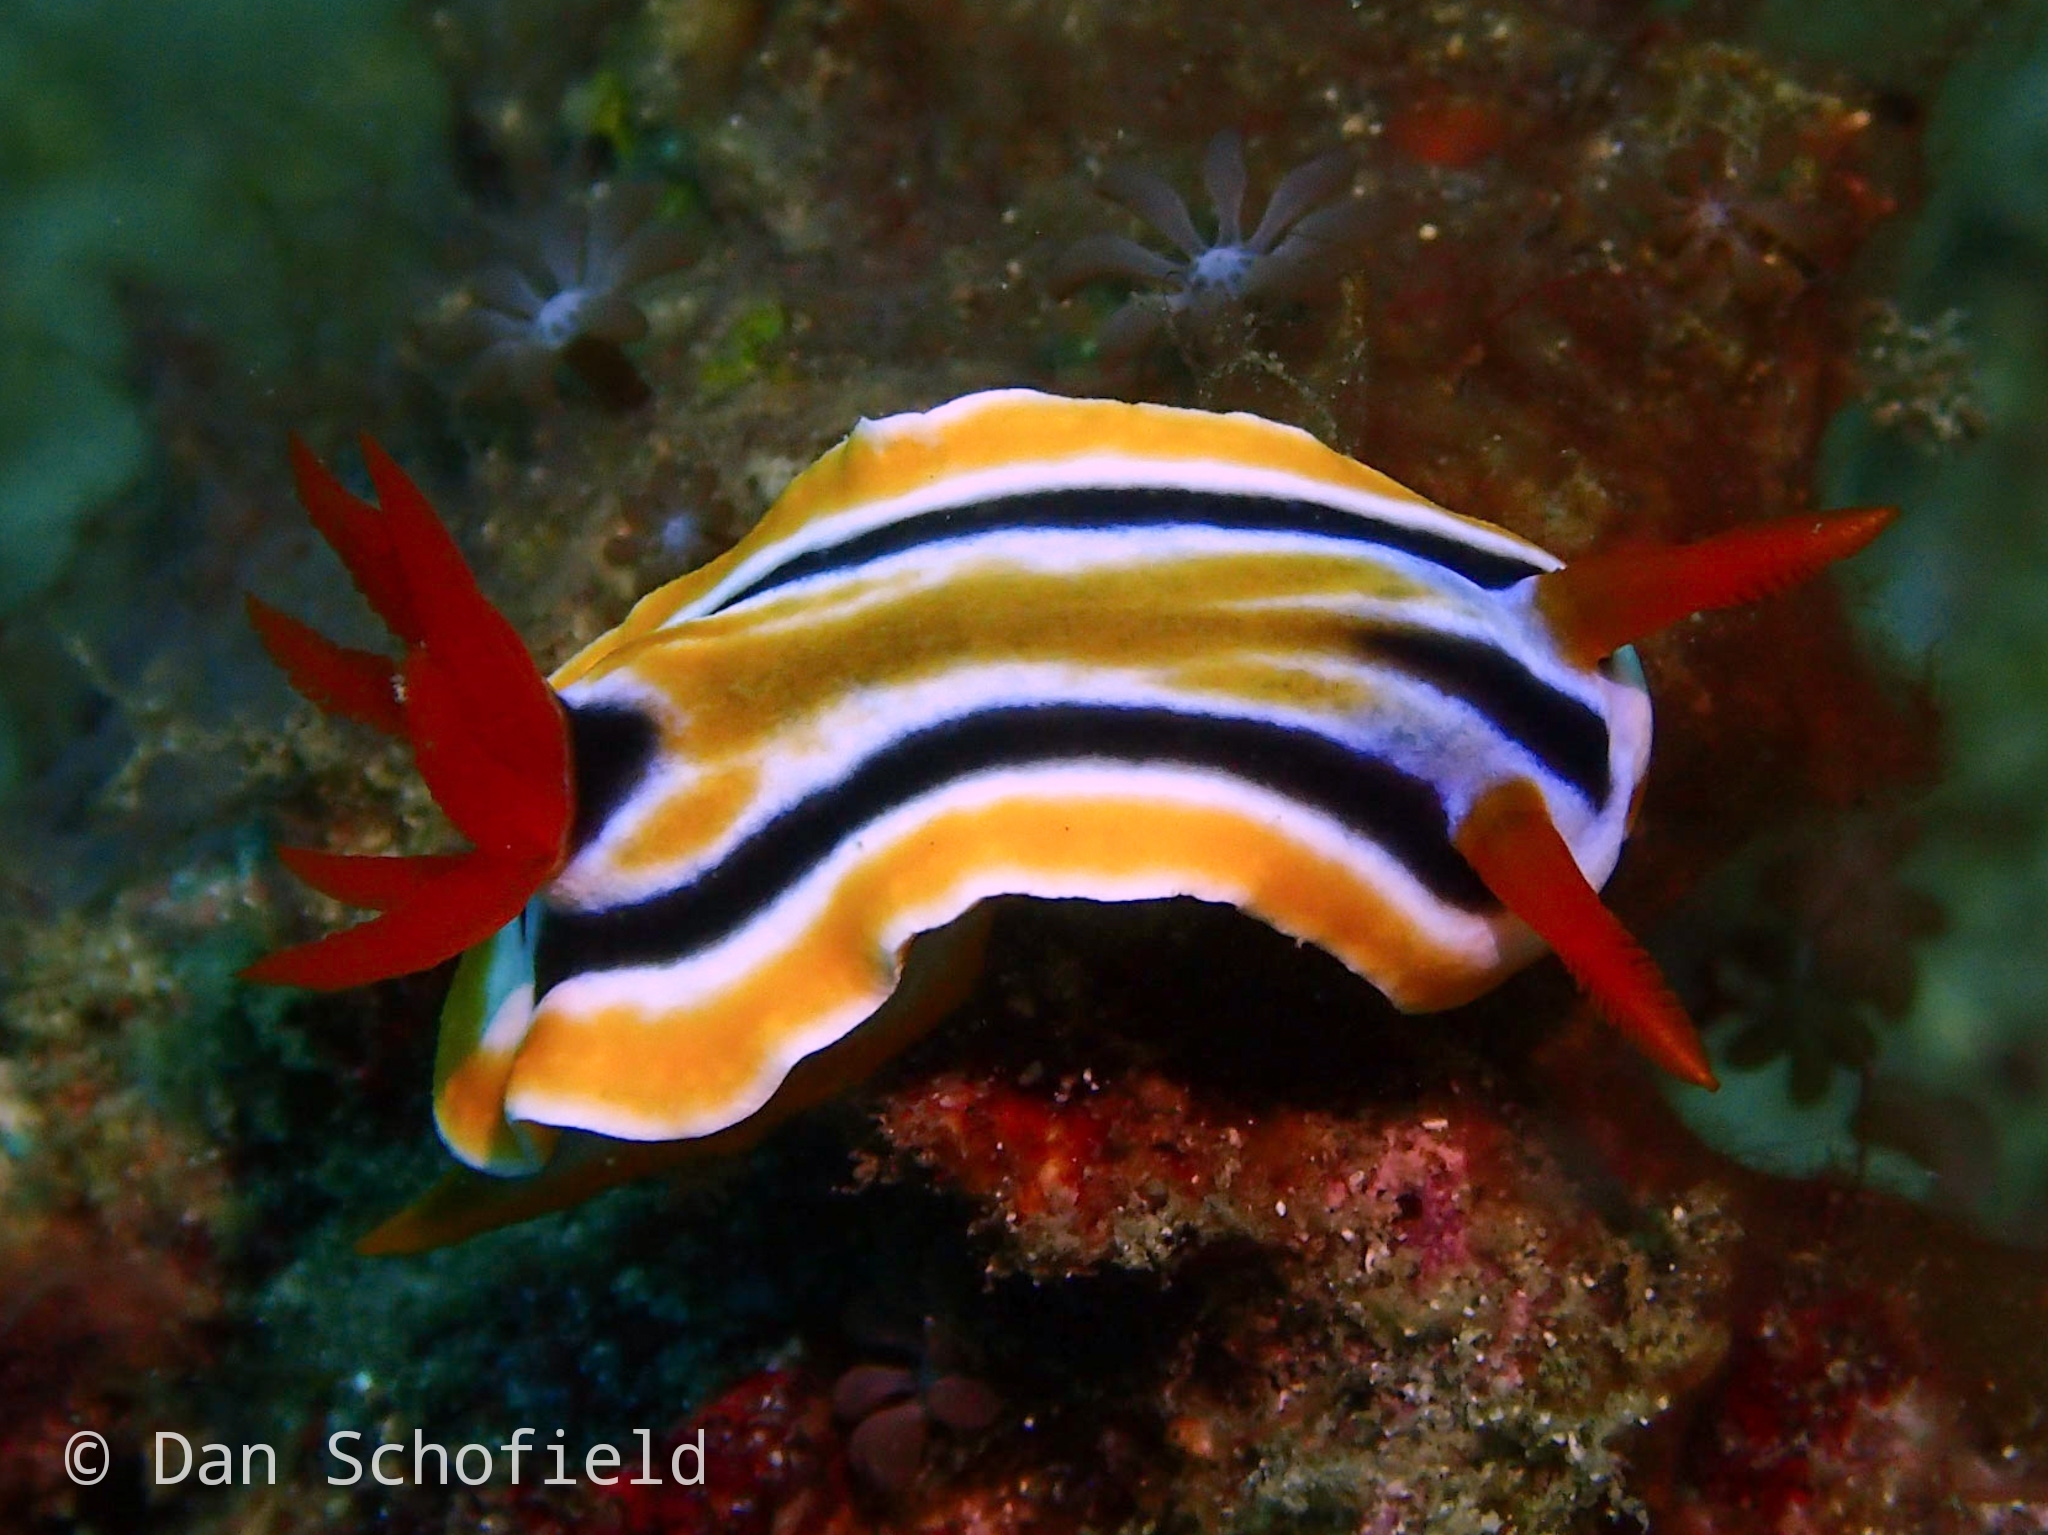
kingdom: Animalia
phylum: Mollusca
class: Gastropoda
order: Nudibranchia
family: Chromodorididae
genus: Chromodoris
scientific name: Chromodoris colemani
